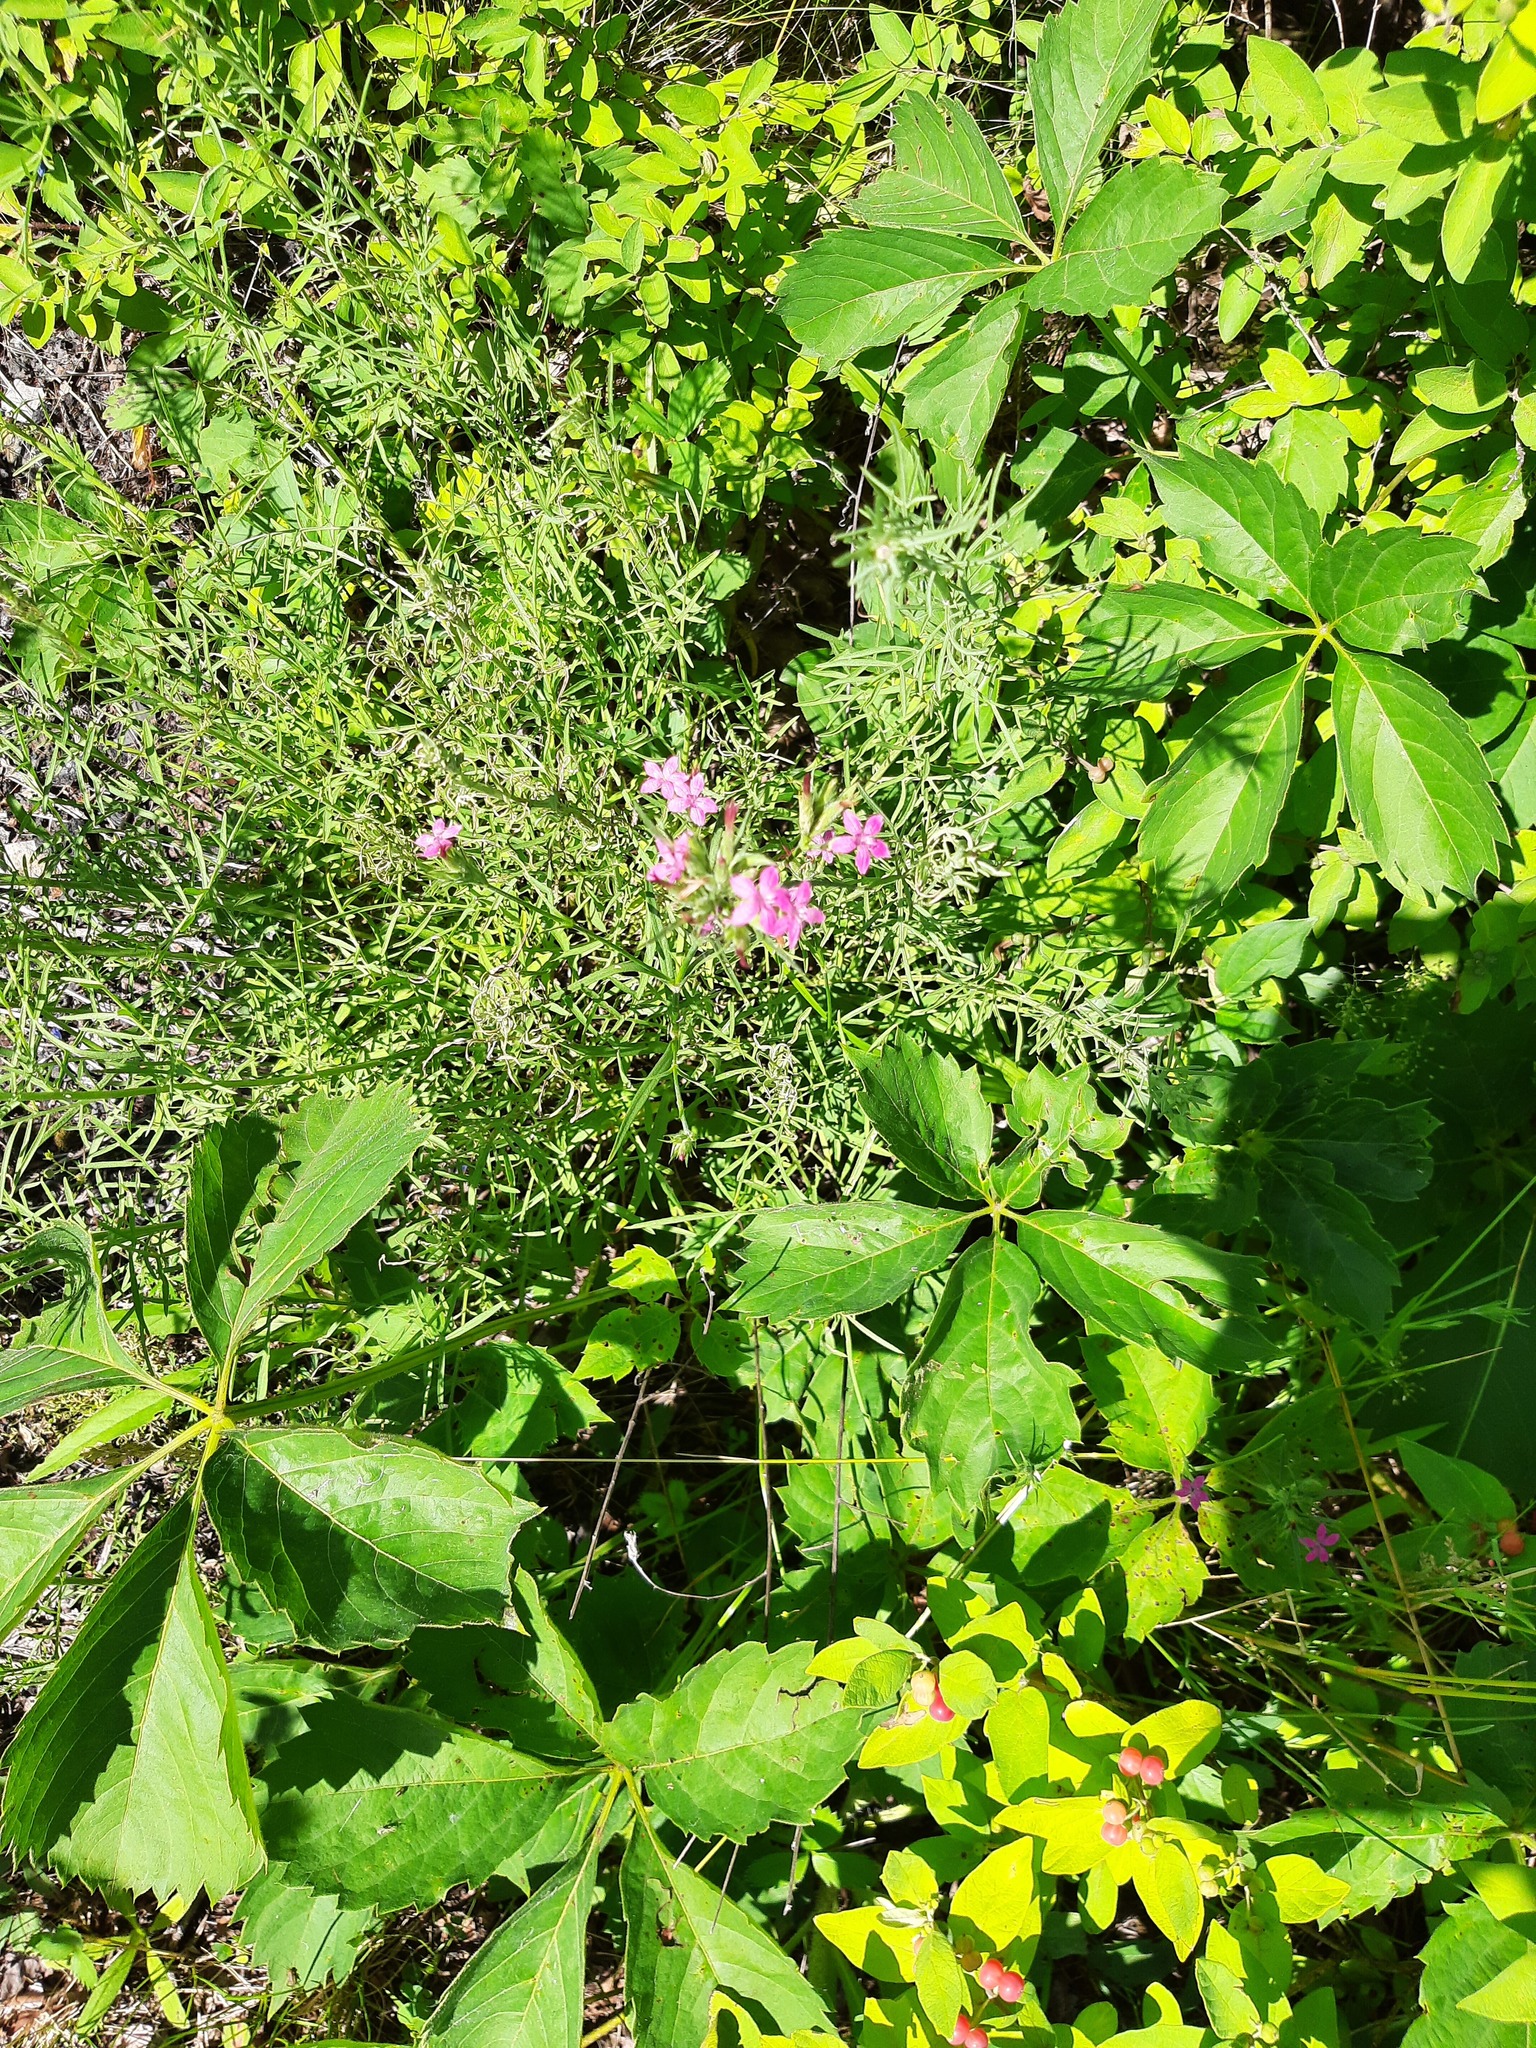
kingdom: Plantae
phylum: Tracheophyta
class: Magnoliopsida
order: Caryophyllales
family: Caryophyllaceae
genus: Dianthus
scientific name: Dianthus armeria
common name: Deptford pink
